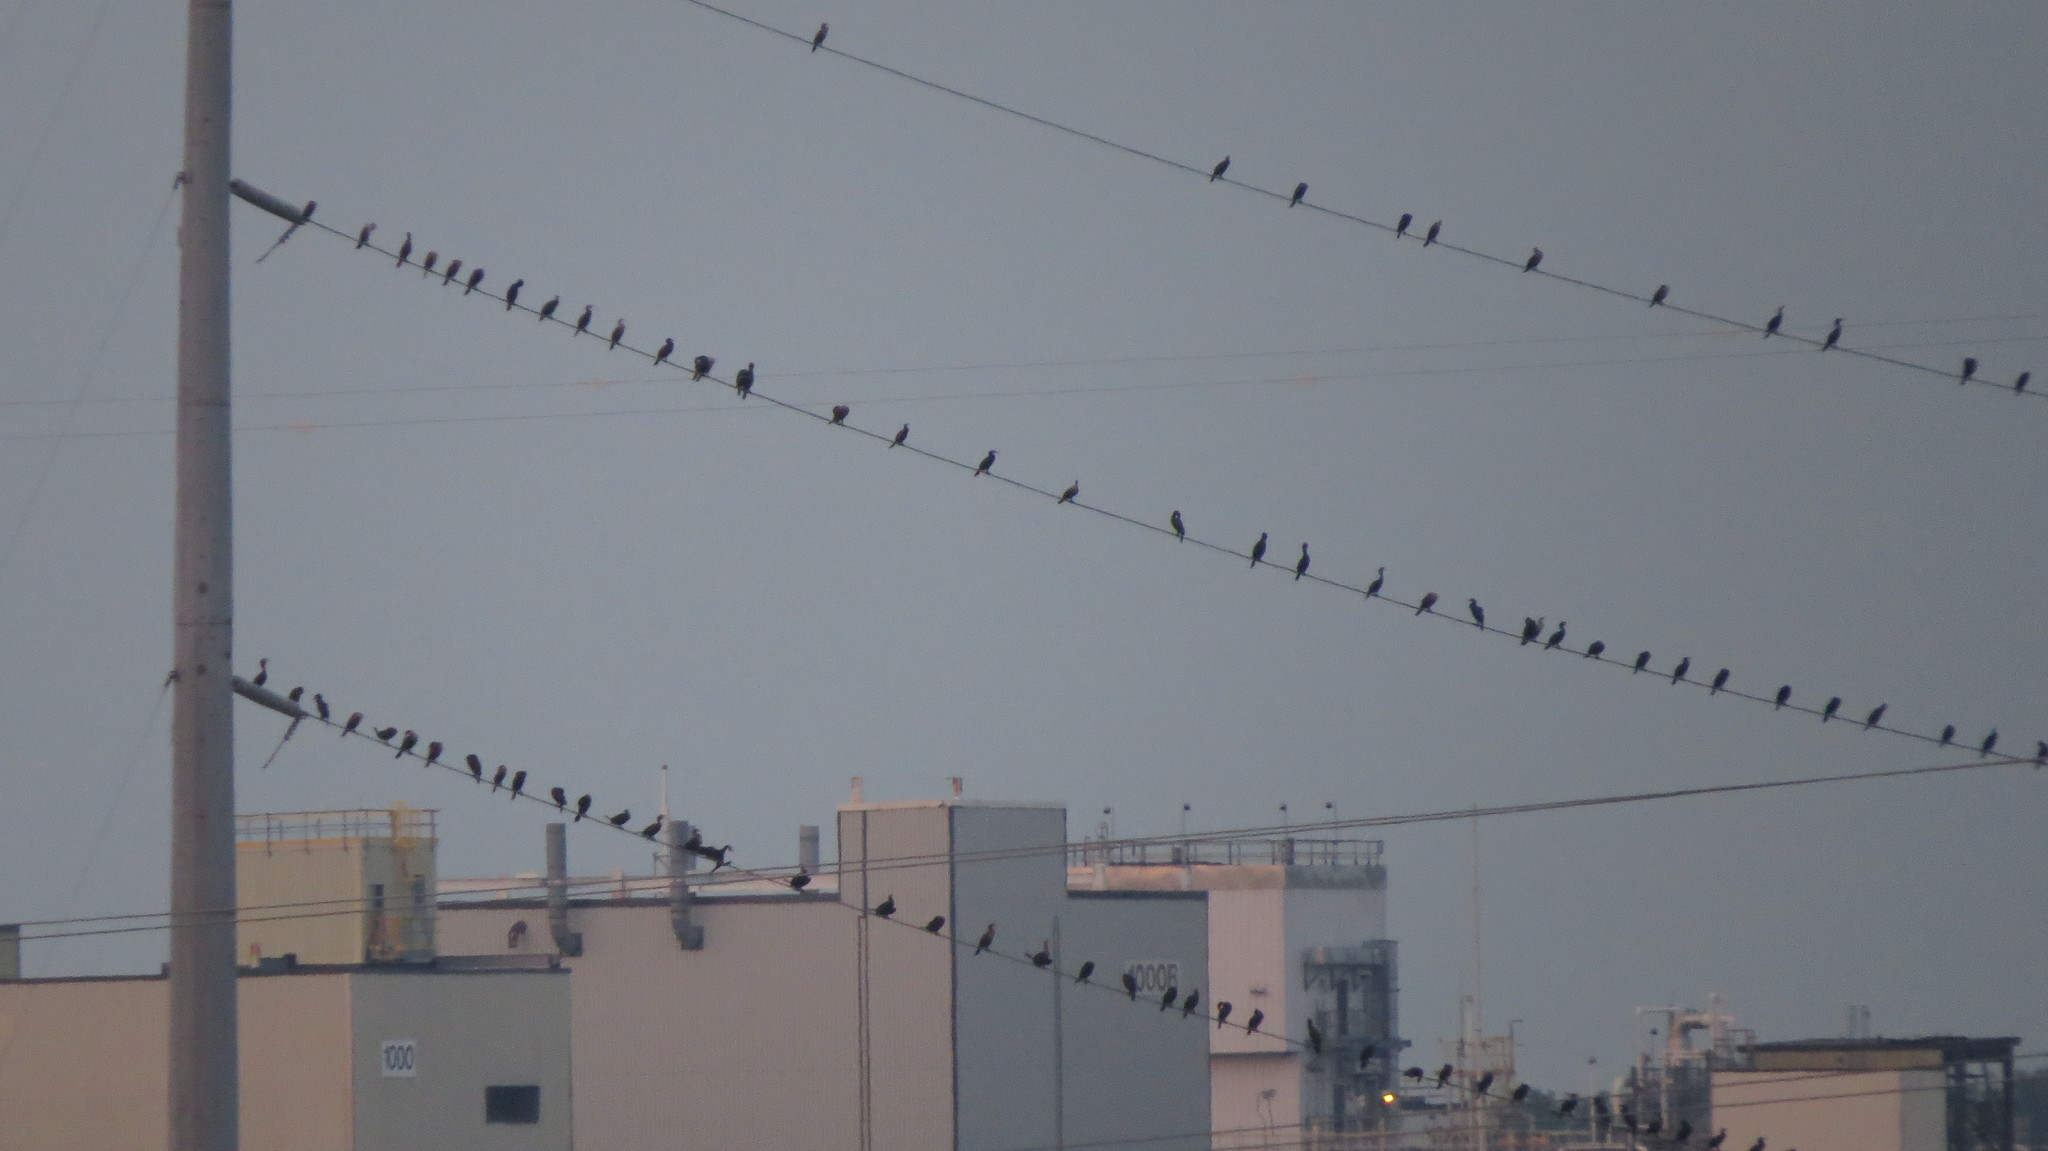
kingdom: Animalia
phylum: Chordata
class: Aves
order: Suliformes
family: Phalacrocoracidae
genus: Phalacrocorax
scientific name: Phalacrocorax auritus
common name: Double-crested cormorant
